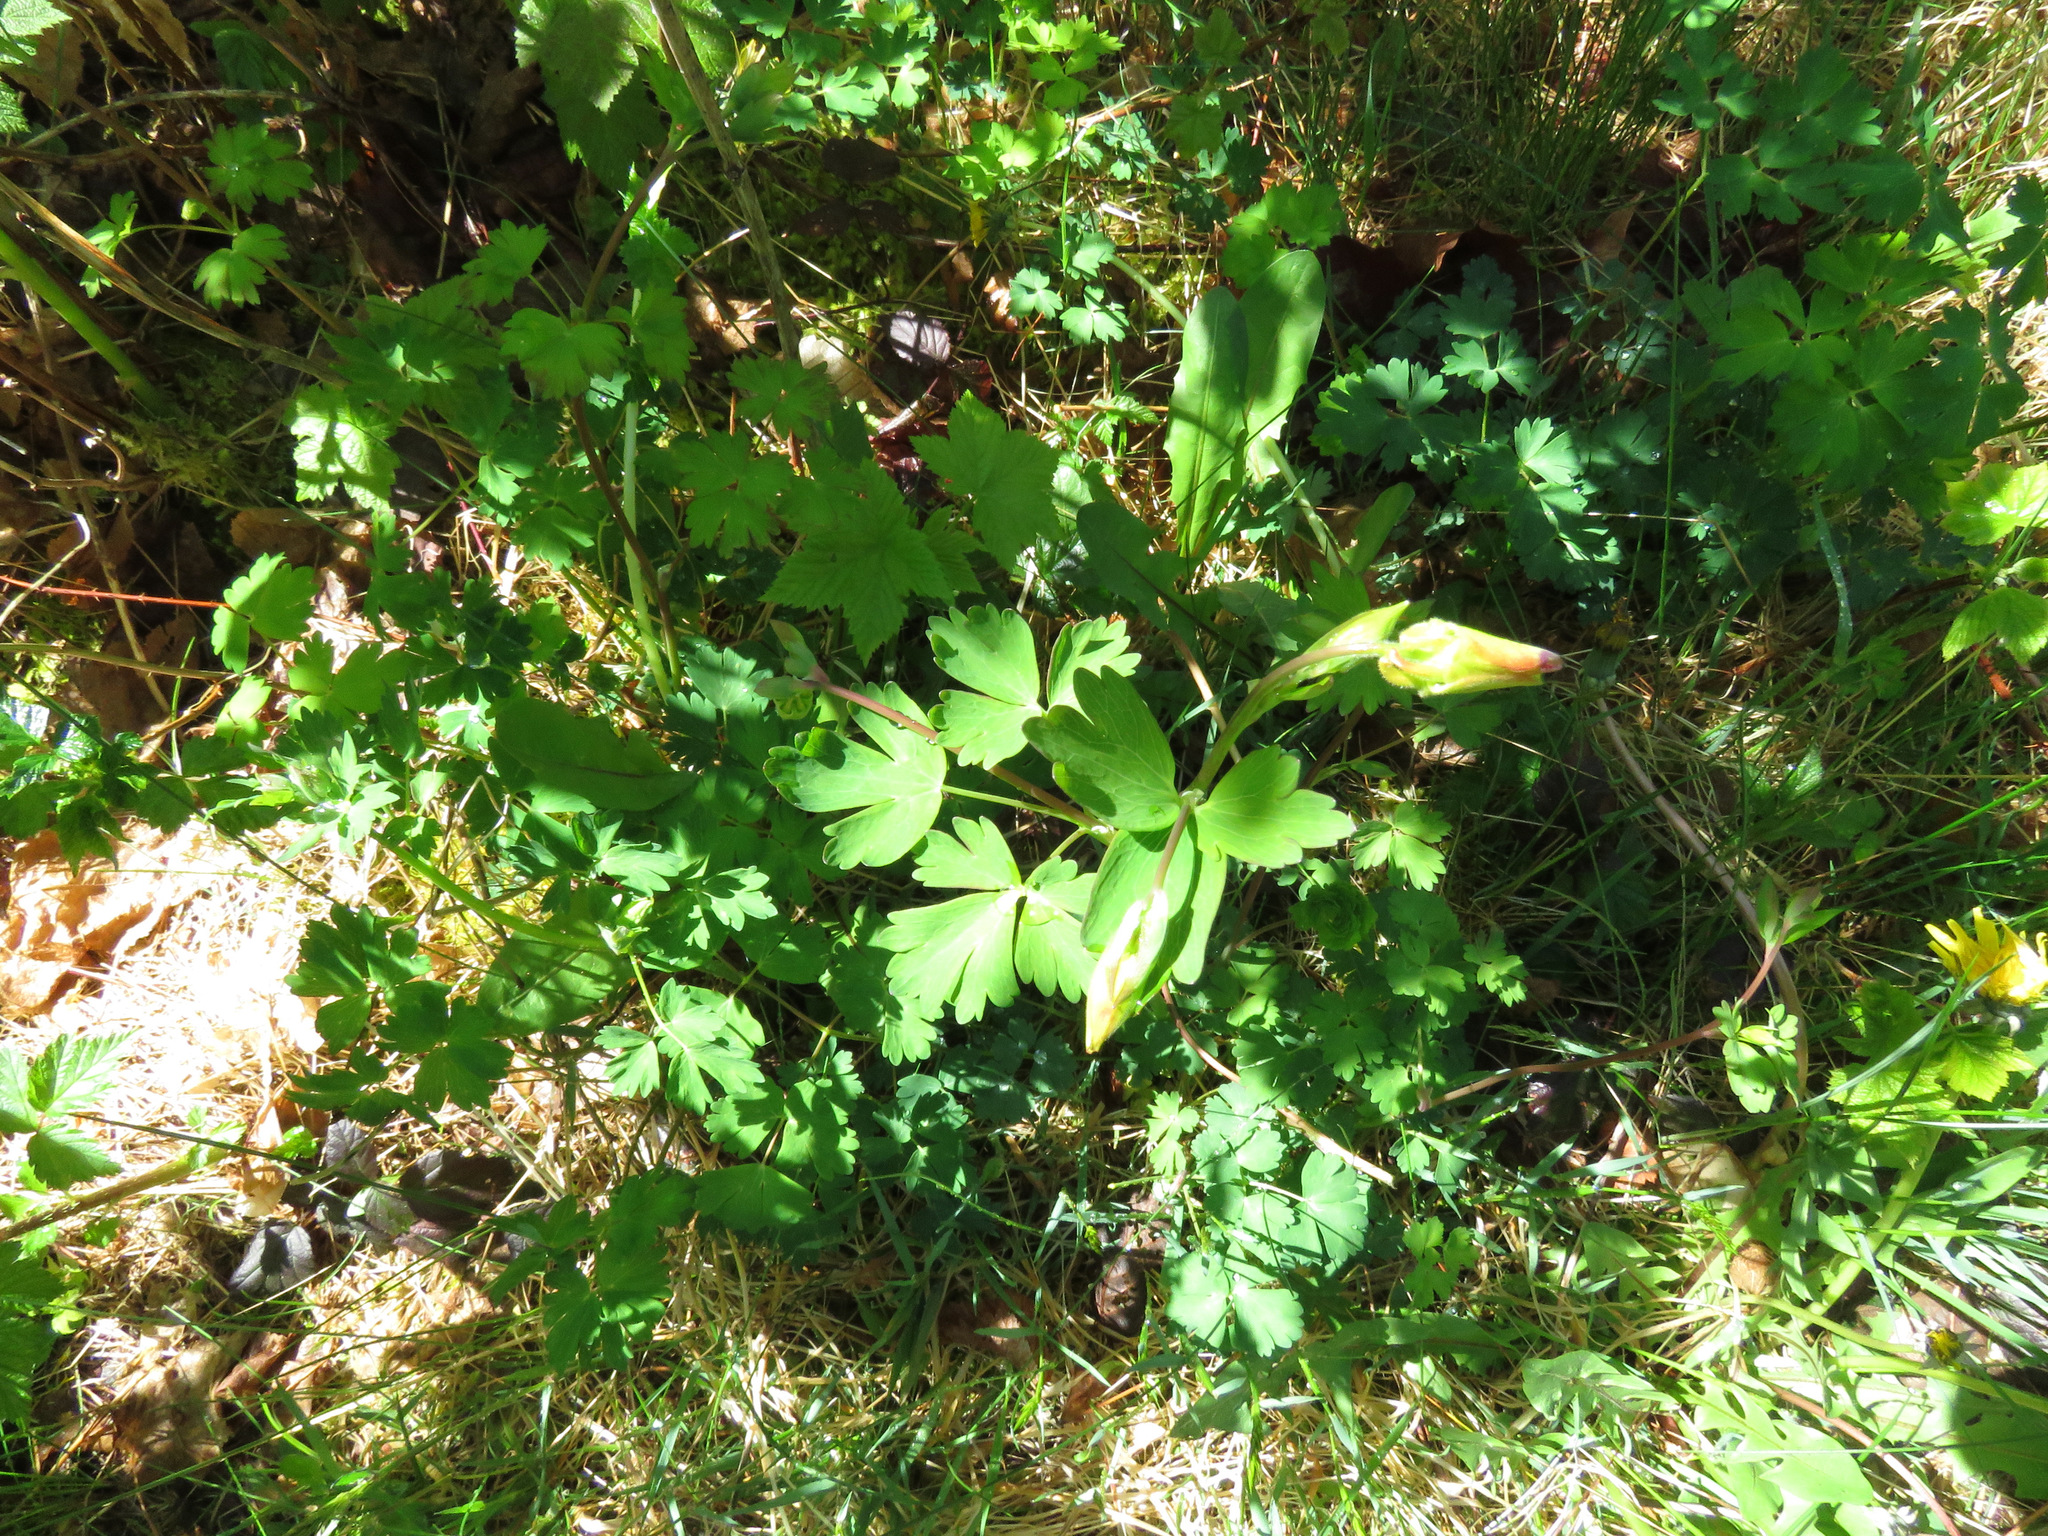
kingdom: Plantae
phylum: Tracheophyta
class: Magnoliopsida
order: Ranunculales
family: Ranunculaceae
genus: Aquilegia
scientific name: Aquilegia formosa
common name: Sitka columbine
